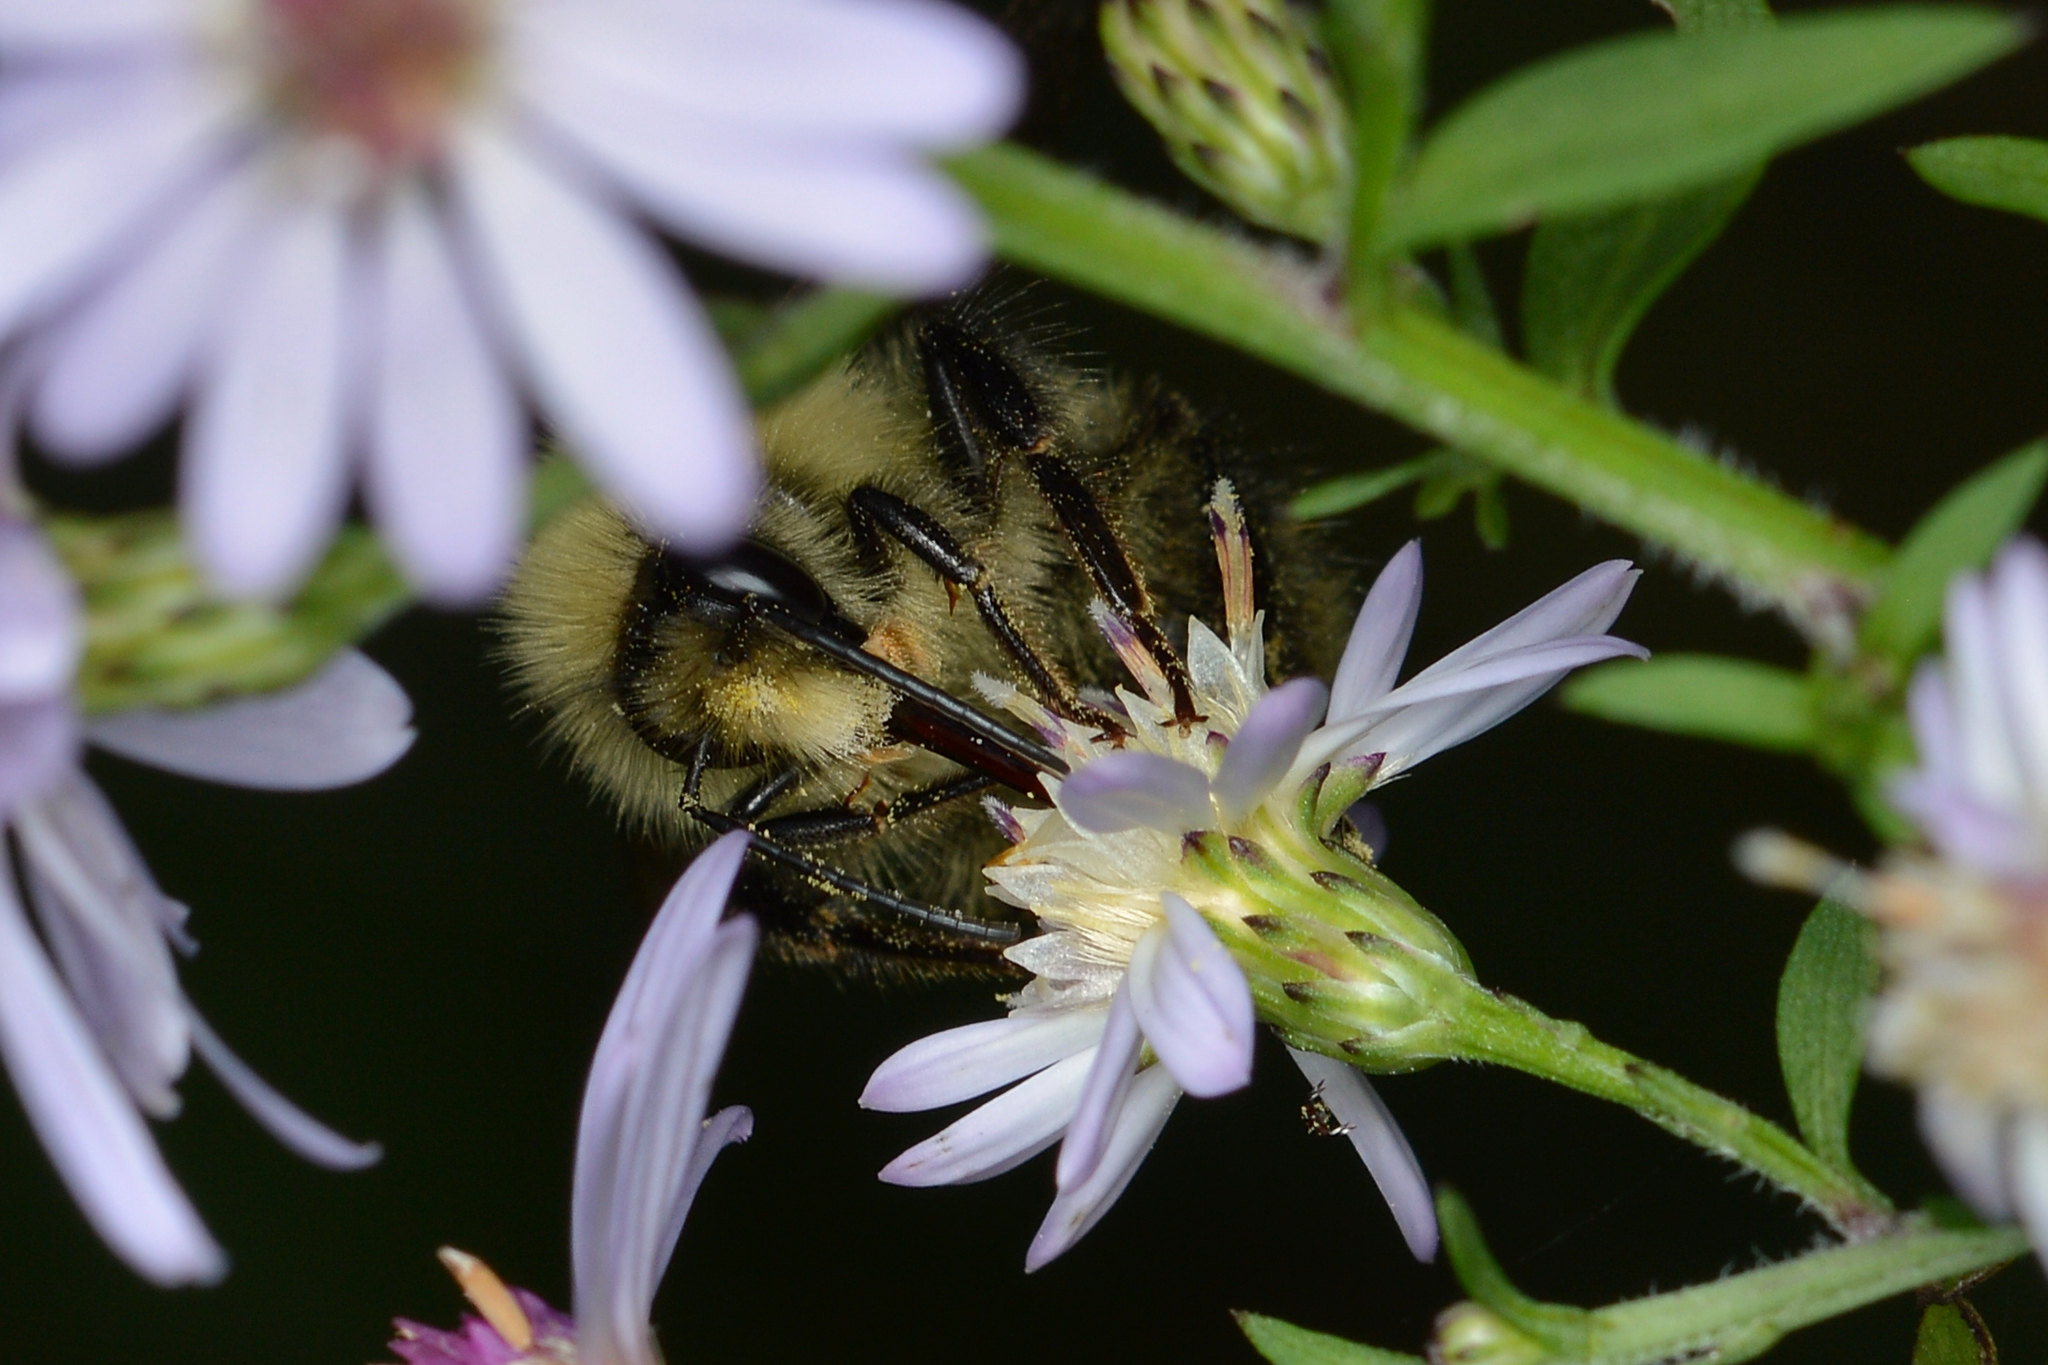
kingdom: Animalia
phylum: Arthropoda
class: Insecta
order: Hymenoptera
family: Apidae
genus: Pyrobombus
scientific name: Pyrobombus
